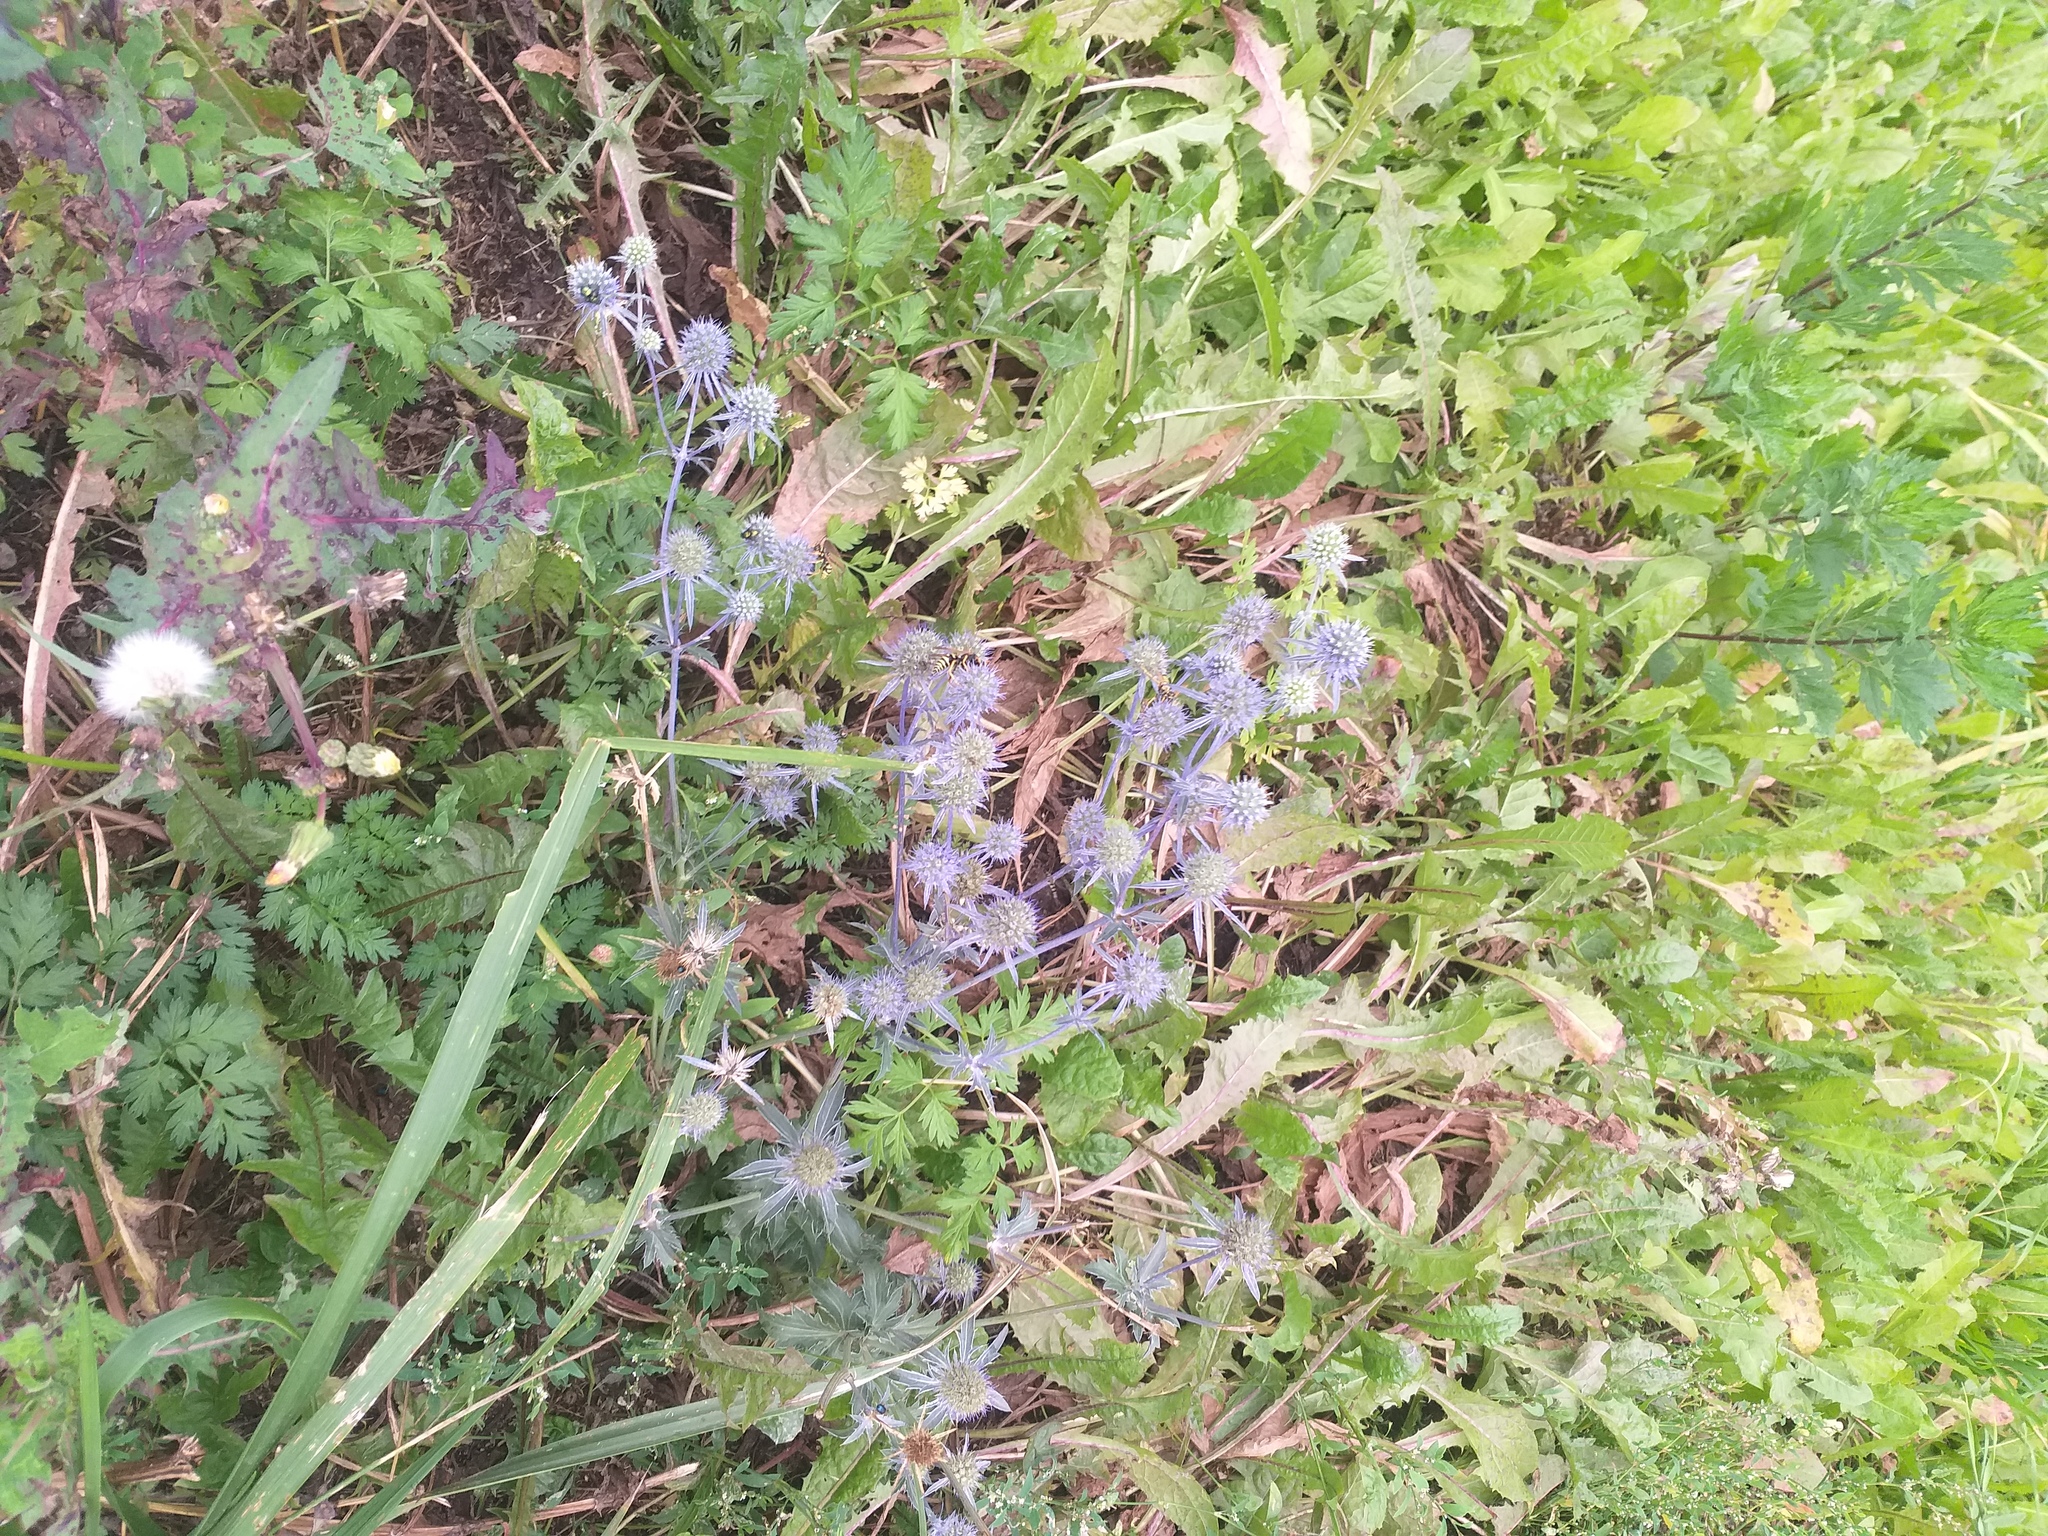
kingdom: Plantae
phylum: Tracheophyta
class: Magnoliopsida
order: Apiales
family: Apiaceae
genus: Eryngium
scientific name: Eryngium planum
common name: Blue eryngo
